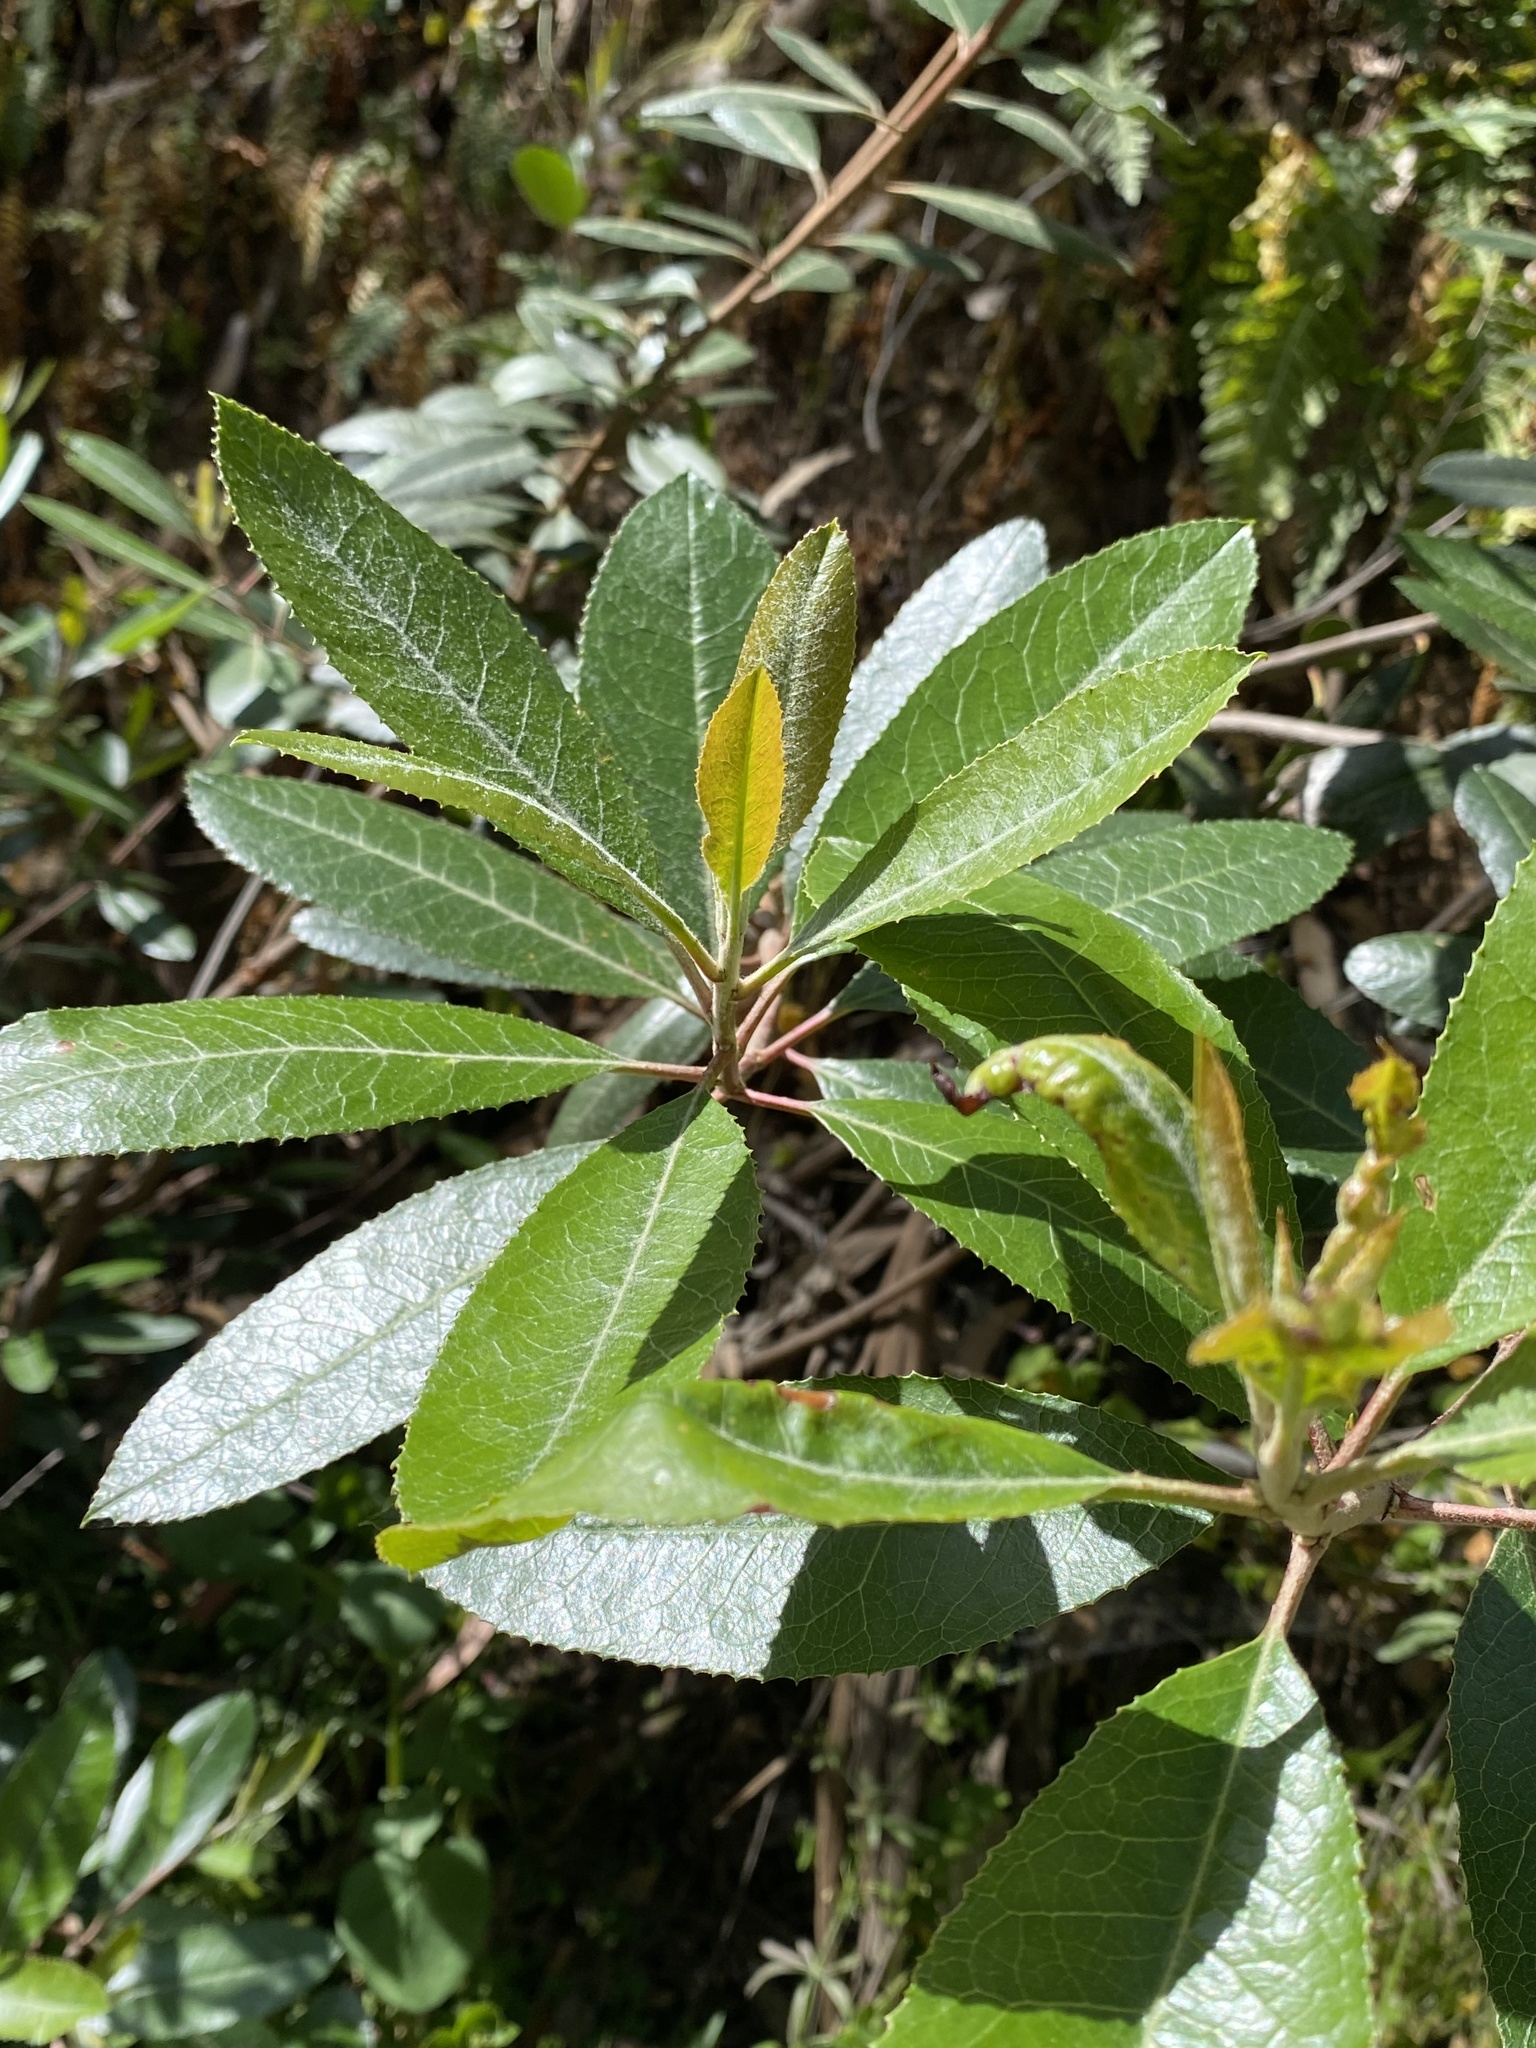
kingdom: Plantae
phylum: Tracheophyta
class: Magnoliopsida
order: Rosales
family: Rosaceae
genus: Heteromeles
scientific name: Heteromeles arbutifolia
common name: California-holly
